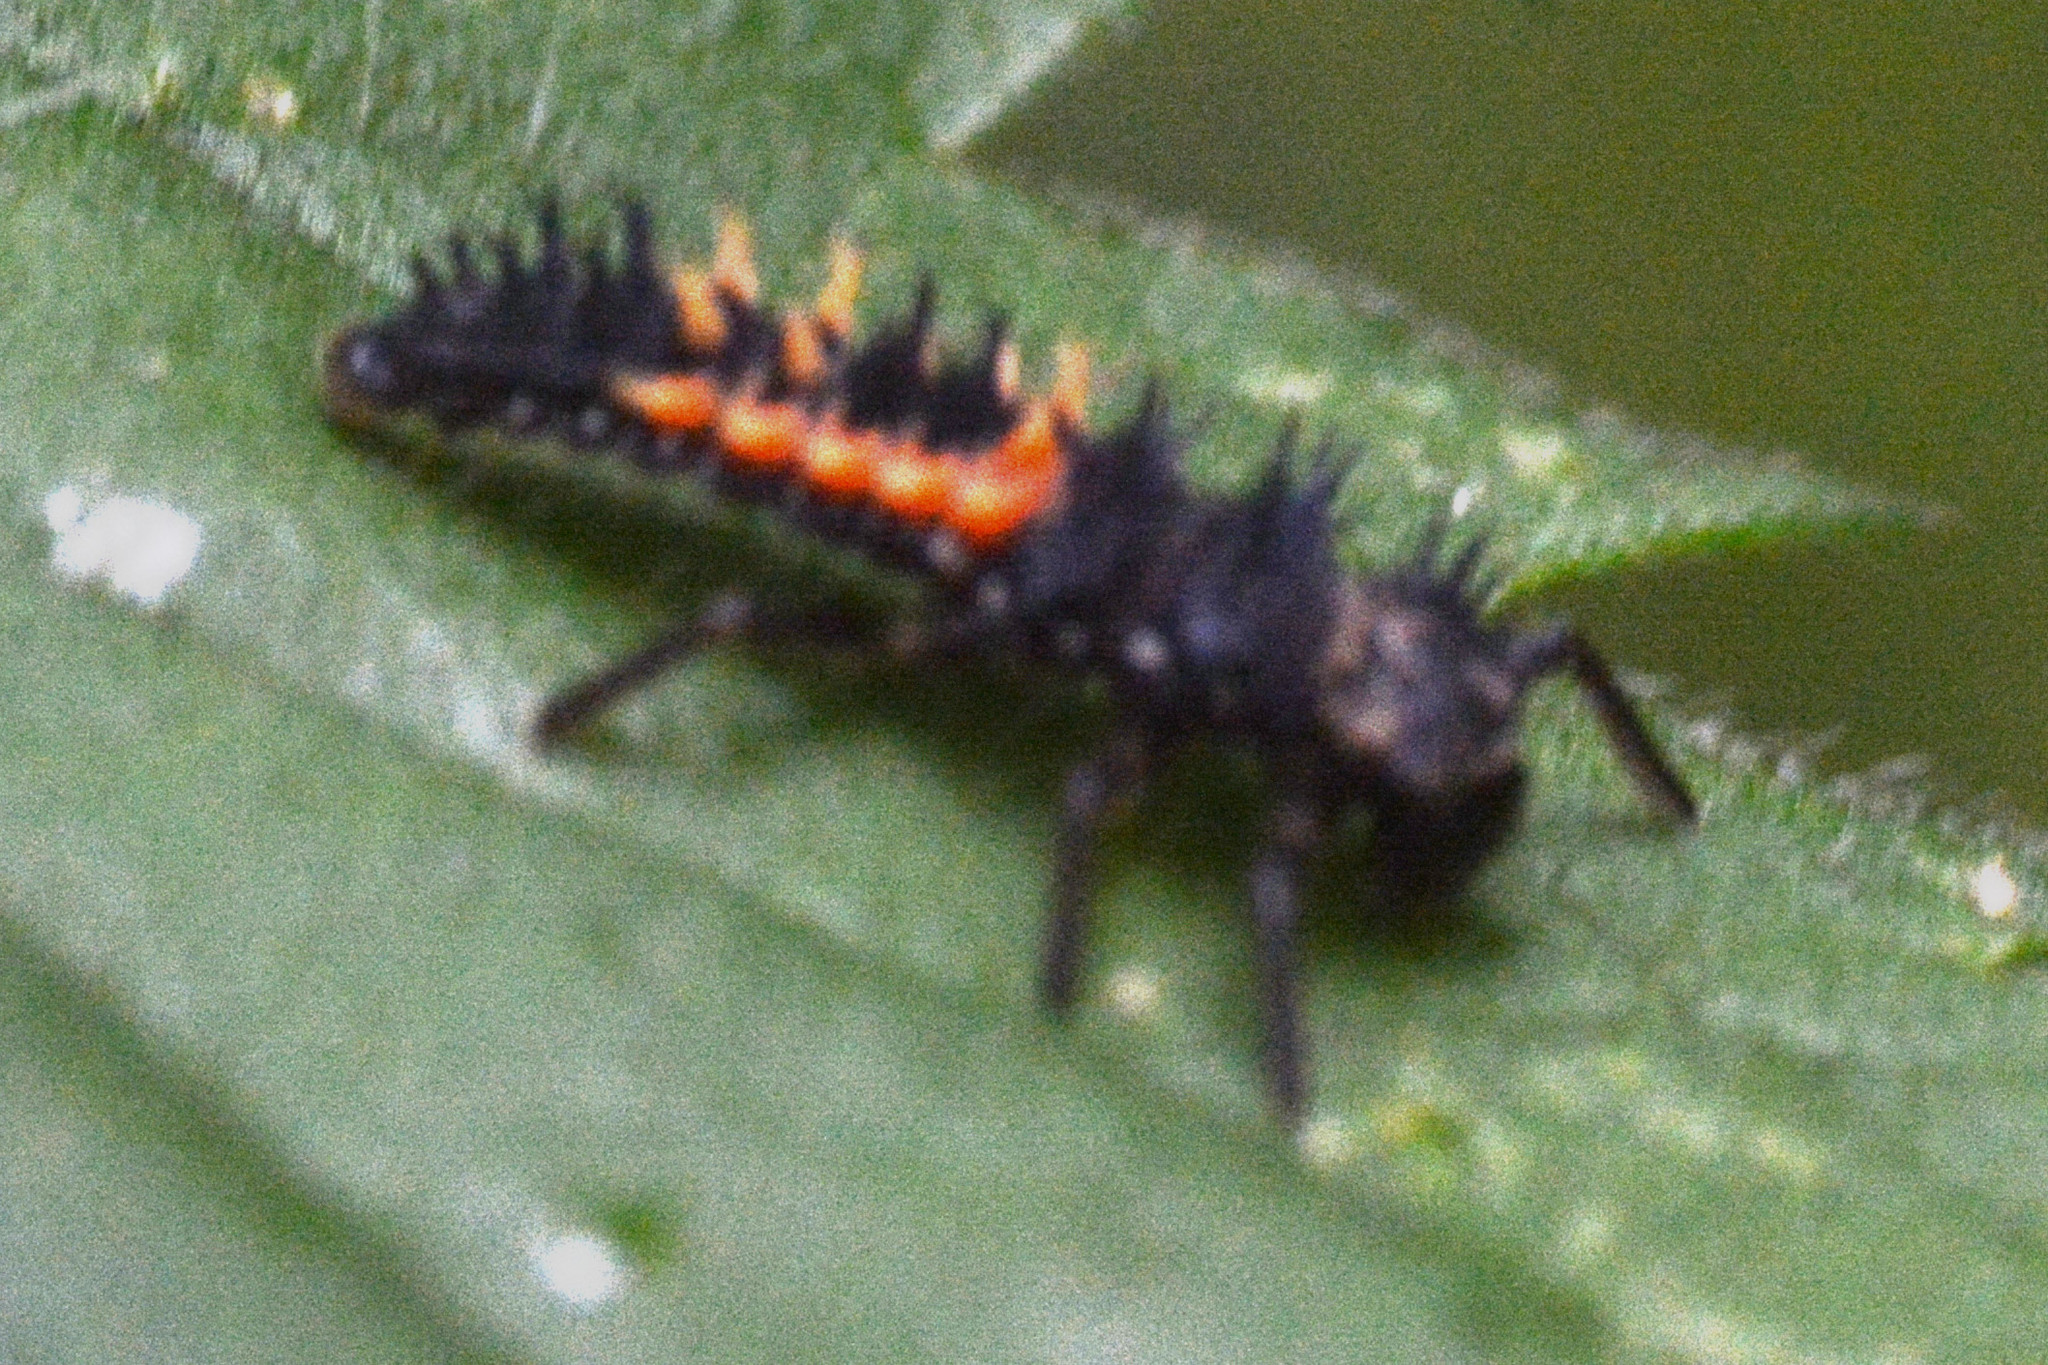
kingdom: Animalia
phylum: Arthropoda
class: Insecta
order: Coleoptera
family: Coccinellidae
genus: Harmonia
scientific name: Harmonia axyridis
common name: Harlequin ladybird
